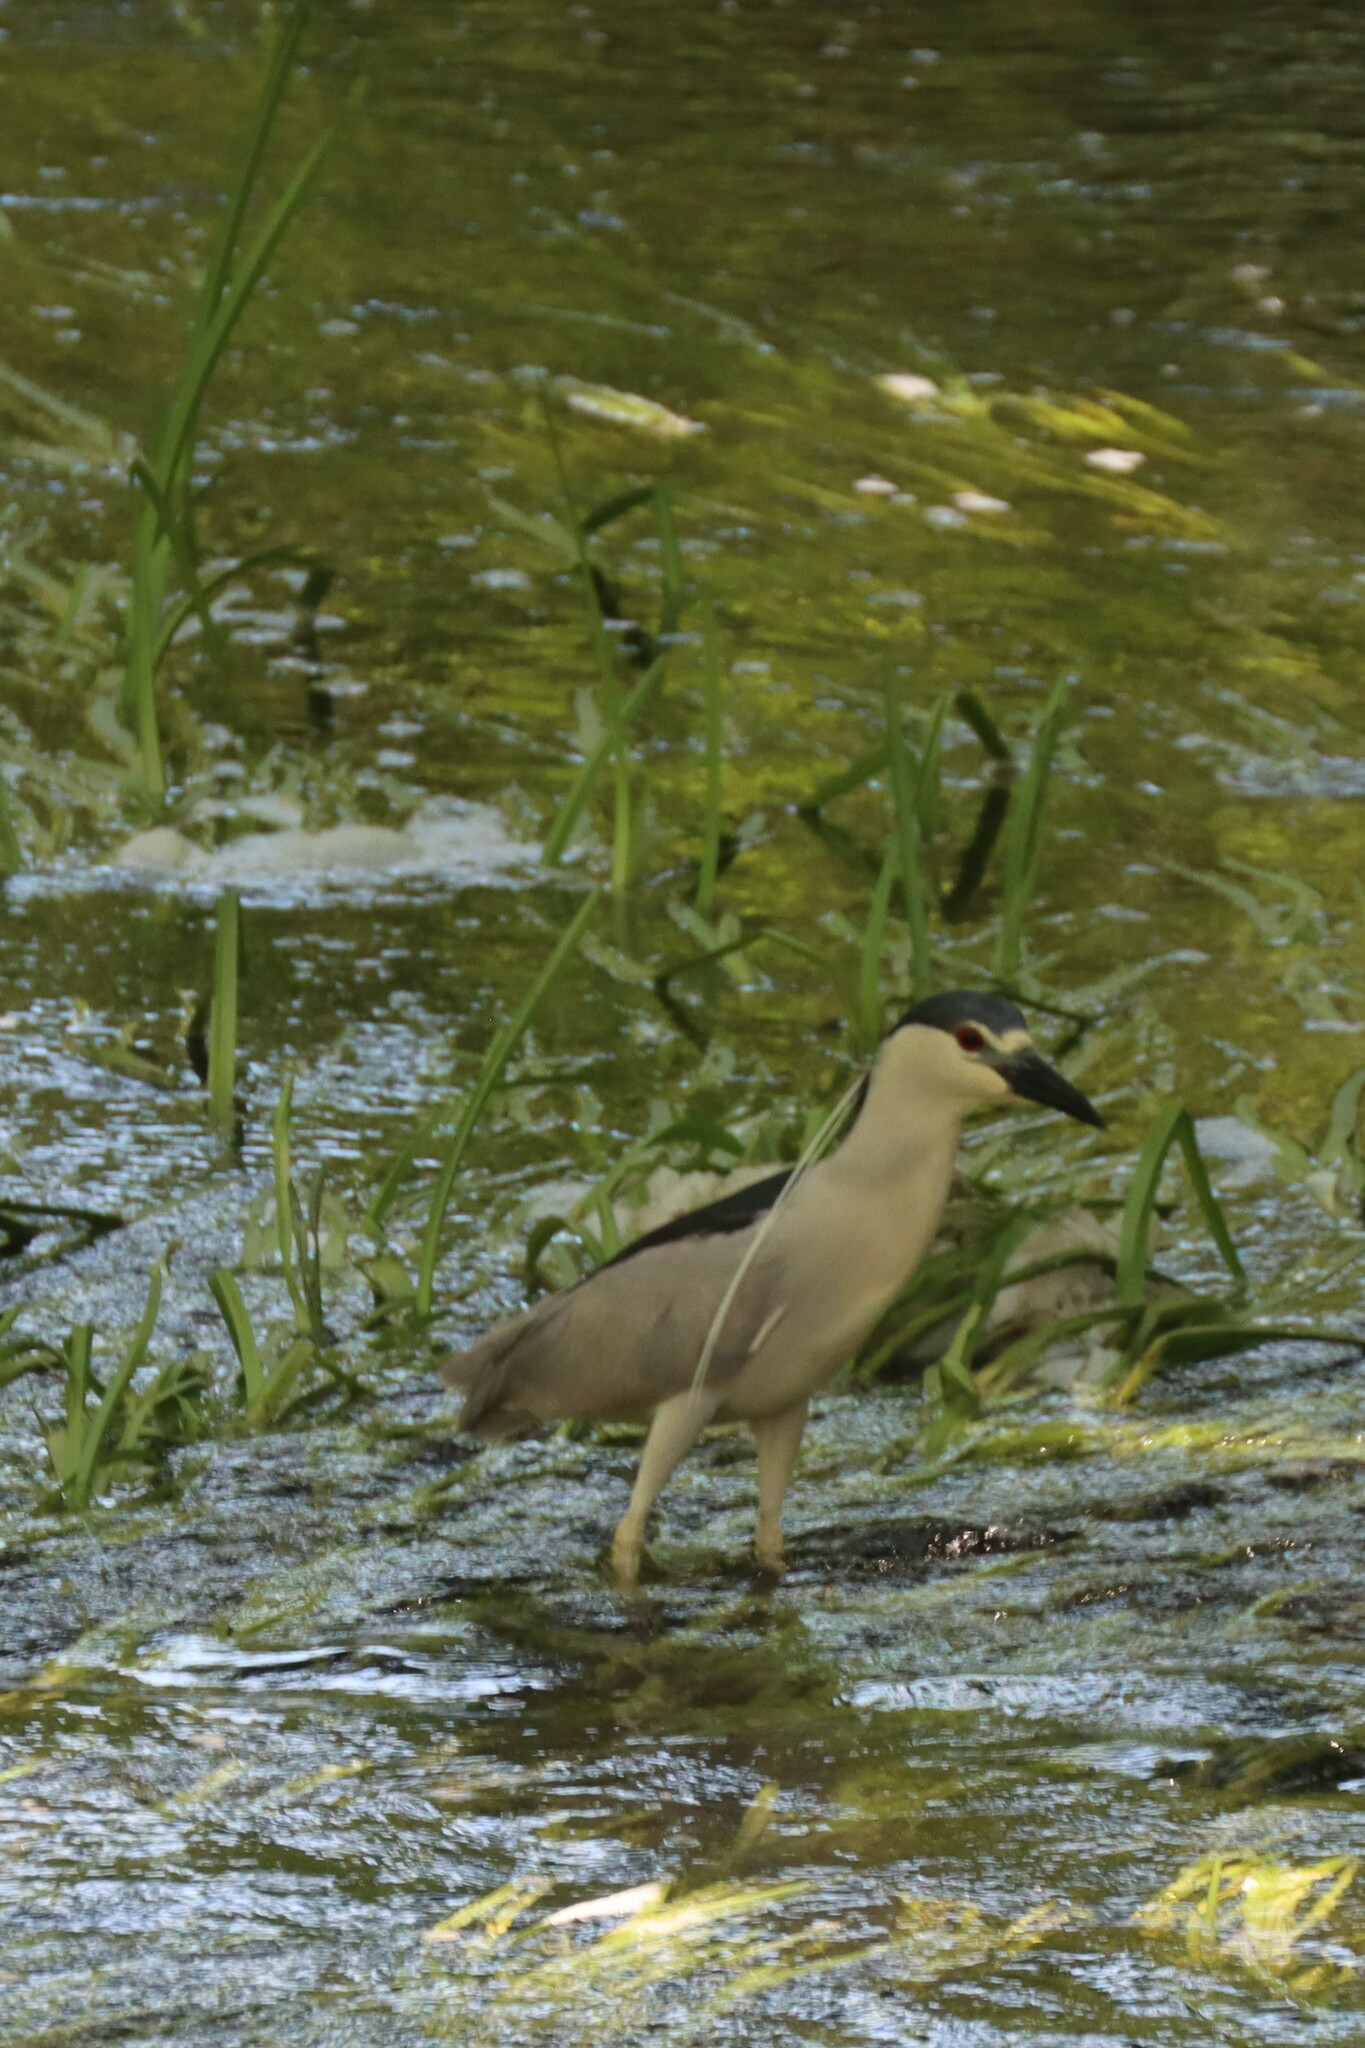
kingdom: Animalia
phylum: Chordata
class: Aves
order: Pelecaniformes
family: Ardeidae
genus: Nycticorax
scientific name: Nycticorax nycticorax
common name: Black-crowned night heron
